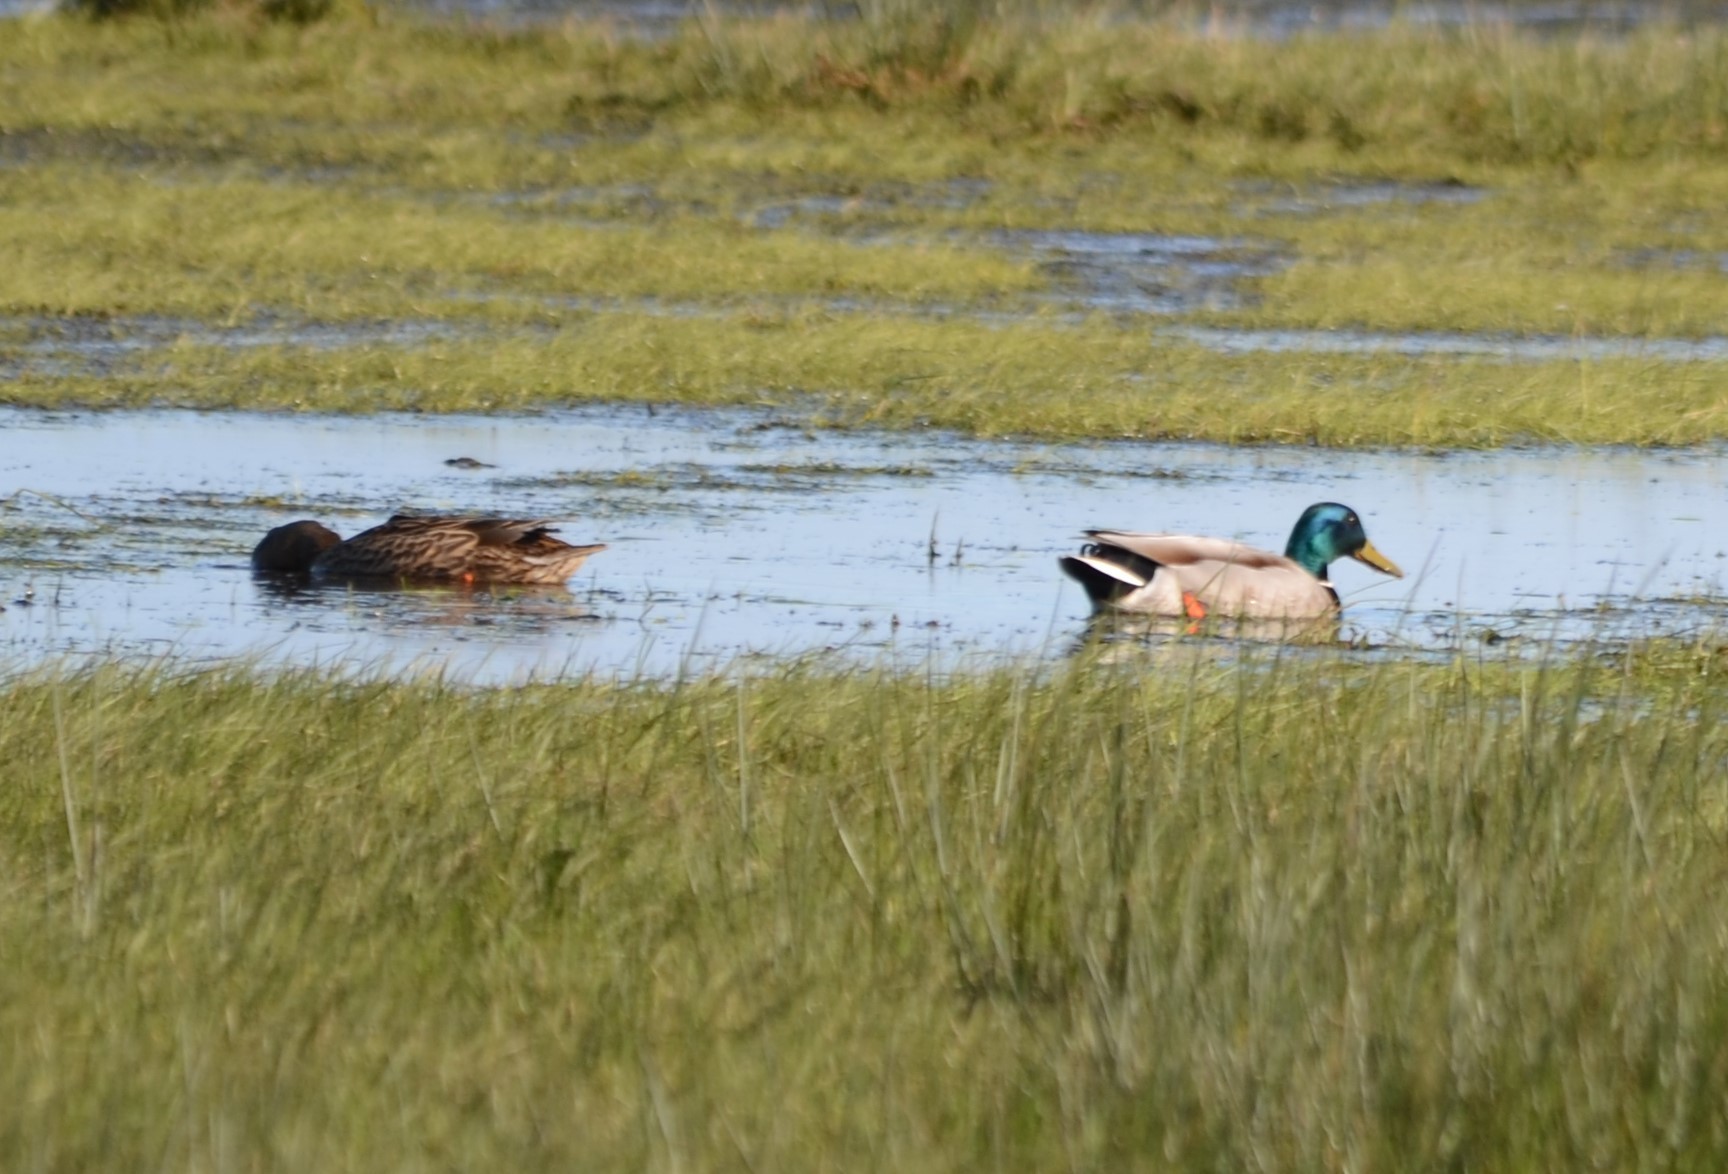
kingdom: Animalia
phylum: Chordata
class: Aves
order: Anseriformes
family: Anatidae
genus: Anas
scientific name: Anas platyrhynchos
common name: Mallard
